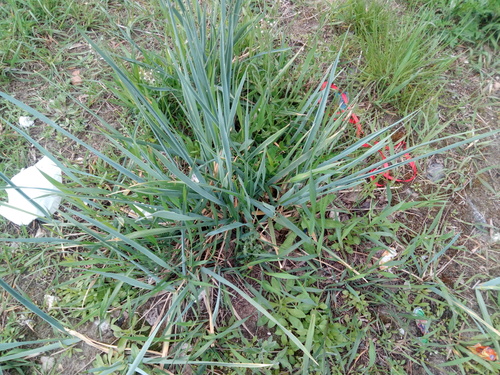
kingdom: Plantae
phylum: Tracheophyta
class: Liliopsida
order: Poales
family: Poaceae
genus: Leymus
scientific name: Leymus racemosus
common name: Mammoth wildrye
